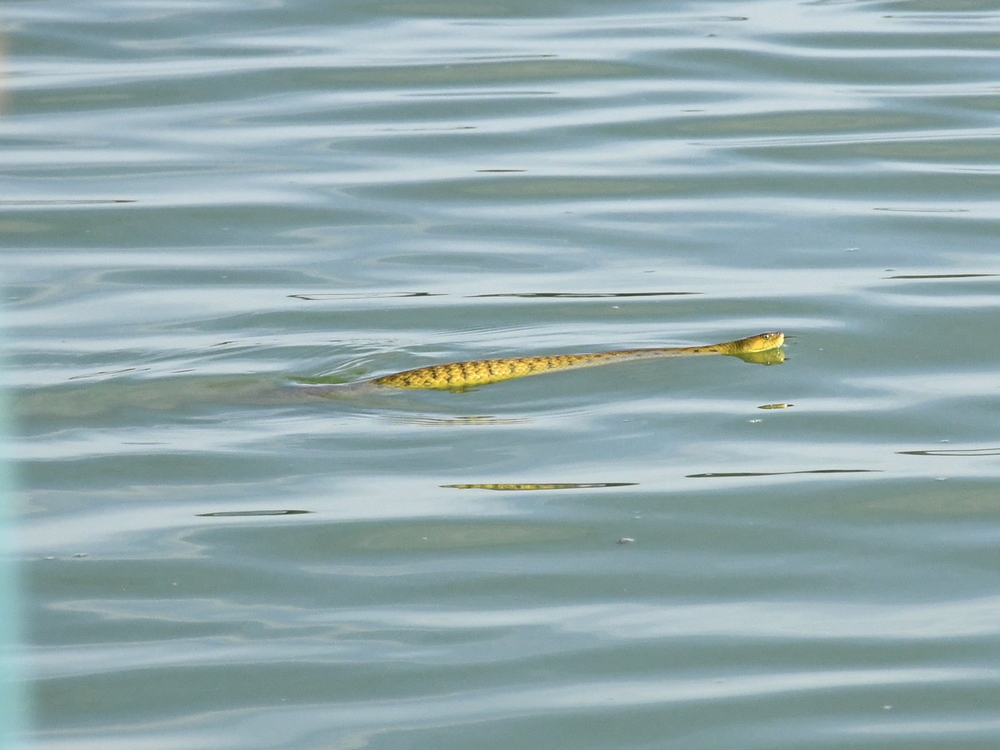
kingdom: Animalia
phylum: Chordata
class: Squamata
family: Colubridae
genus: Fowlea
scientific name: Fowlea piscator
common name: Asiatic water snake
